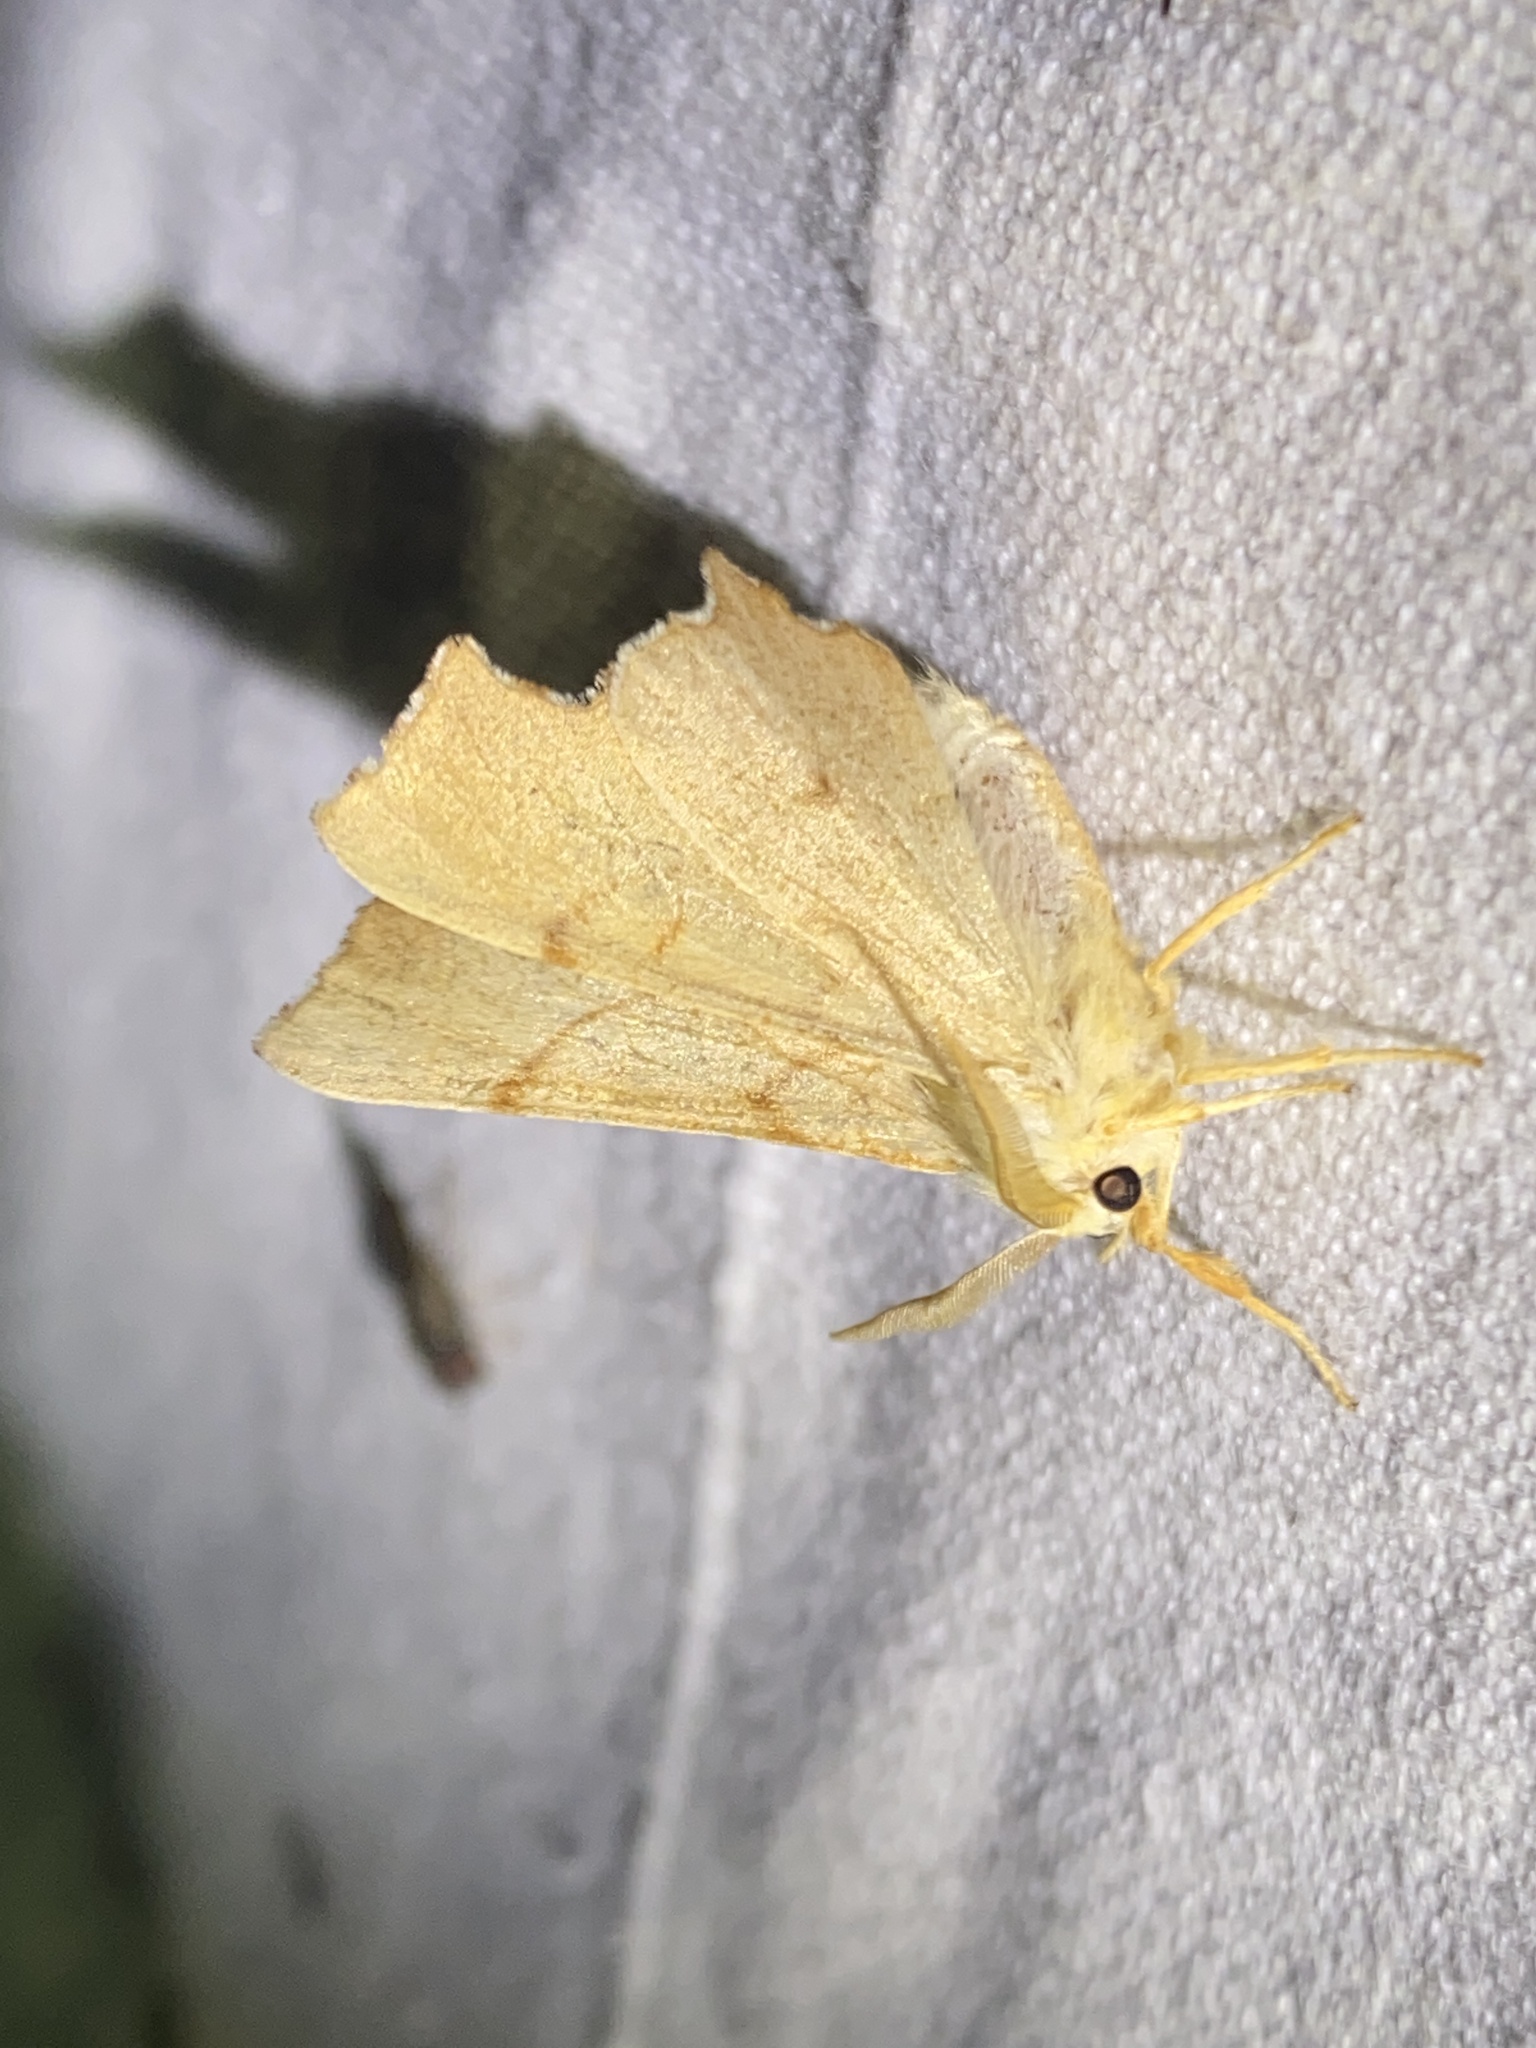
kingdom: Animalia
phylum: Arthropoda
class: Insecta
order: Lepidoptera
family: Geometridae
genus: Ennomos
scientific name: Ennomos erosaria
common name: September thorn
